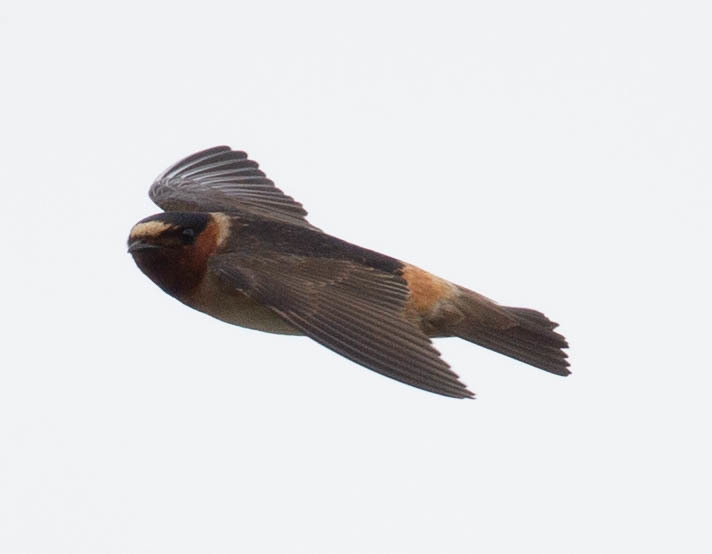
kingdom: Animalia
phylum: Chordata
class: Aves
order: Passeriformes
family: Hirundinidae
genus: Petrochelidon
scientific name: Petrochelidon pyrrhonota
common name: American cliff swallow
